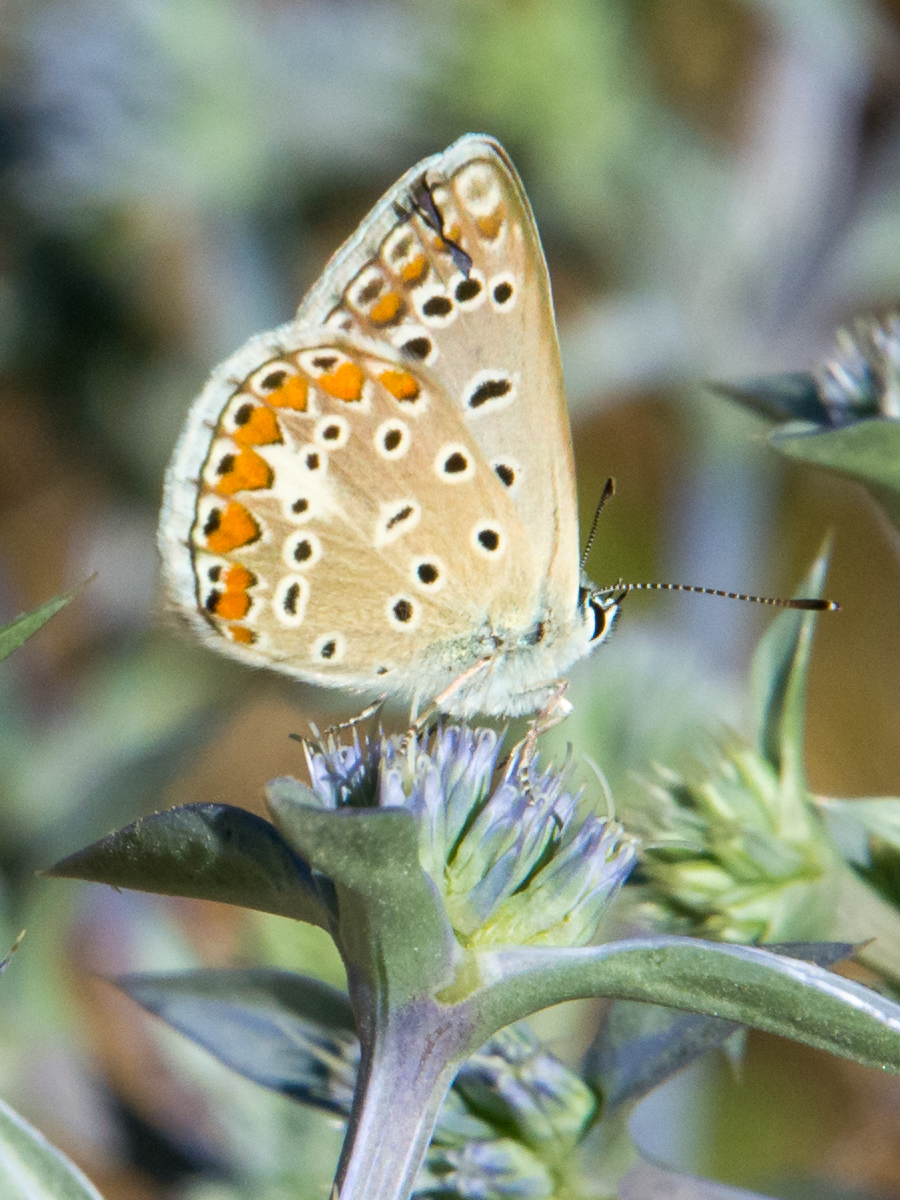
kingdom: Animalia
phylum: Arthropoda
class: Insecta
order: Lepidoptera
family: Lycaenidae
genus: Polyommatus
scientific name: Polyommatus celina
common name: Austaut's blue
